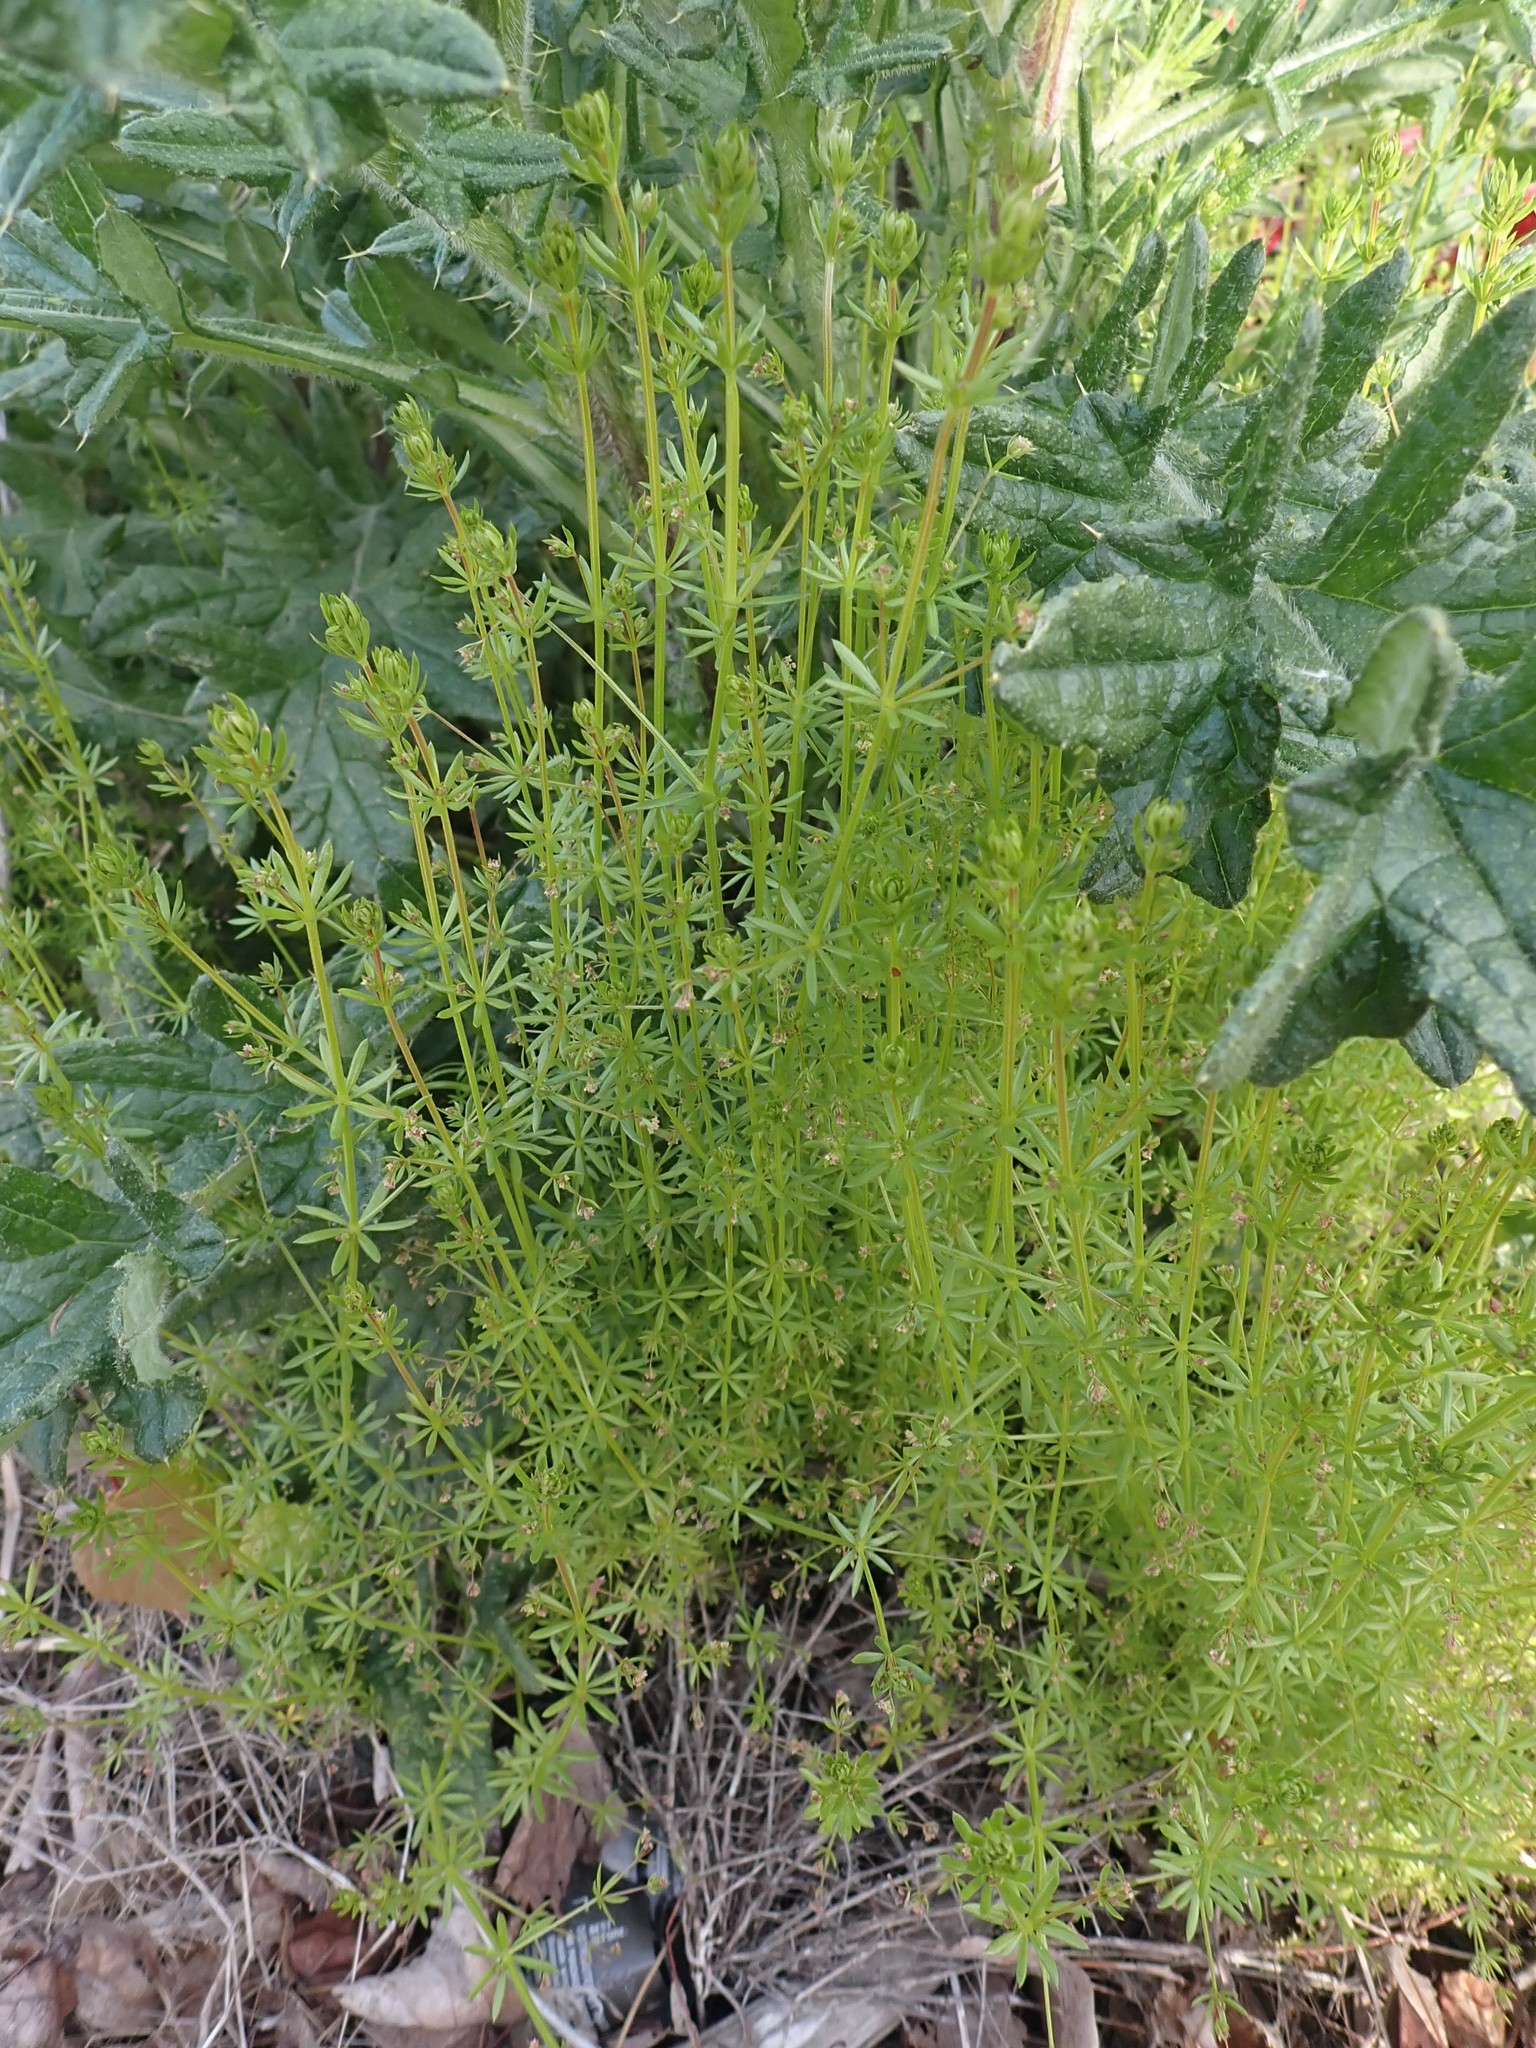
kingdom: Plantae
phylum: Tracheophyta
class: Magnoliopsida
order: Gentianales
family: Rubiaceae
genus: Galium
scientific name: Galium aparine
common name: Cleavers
